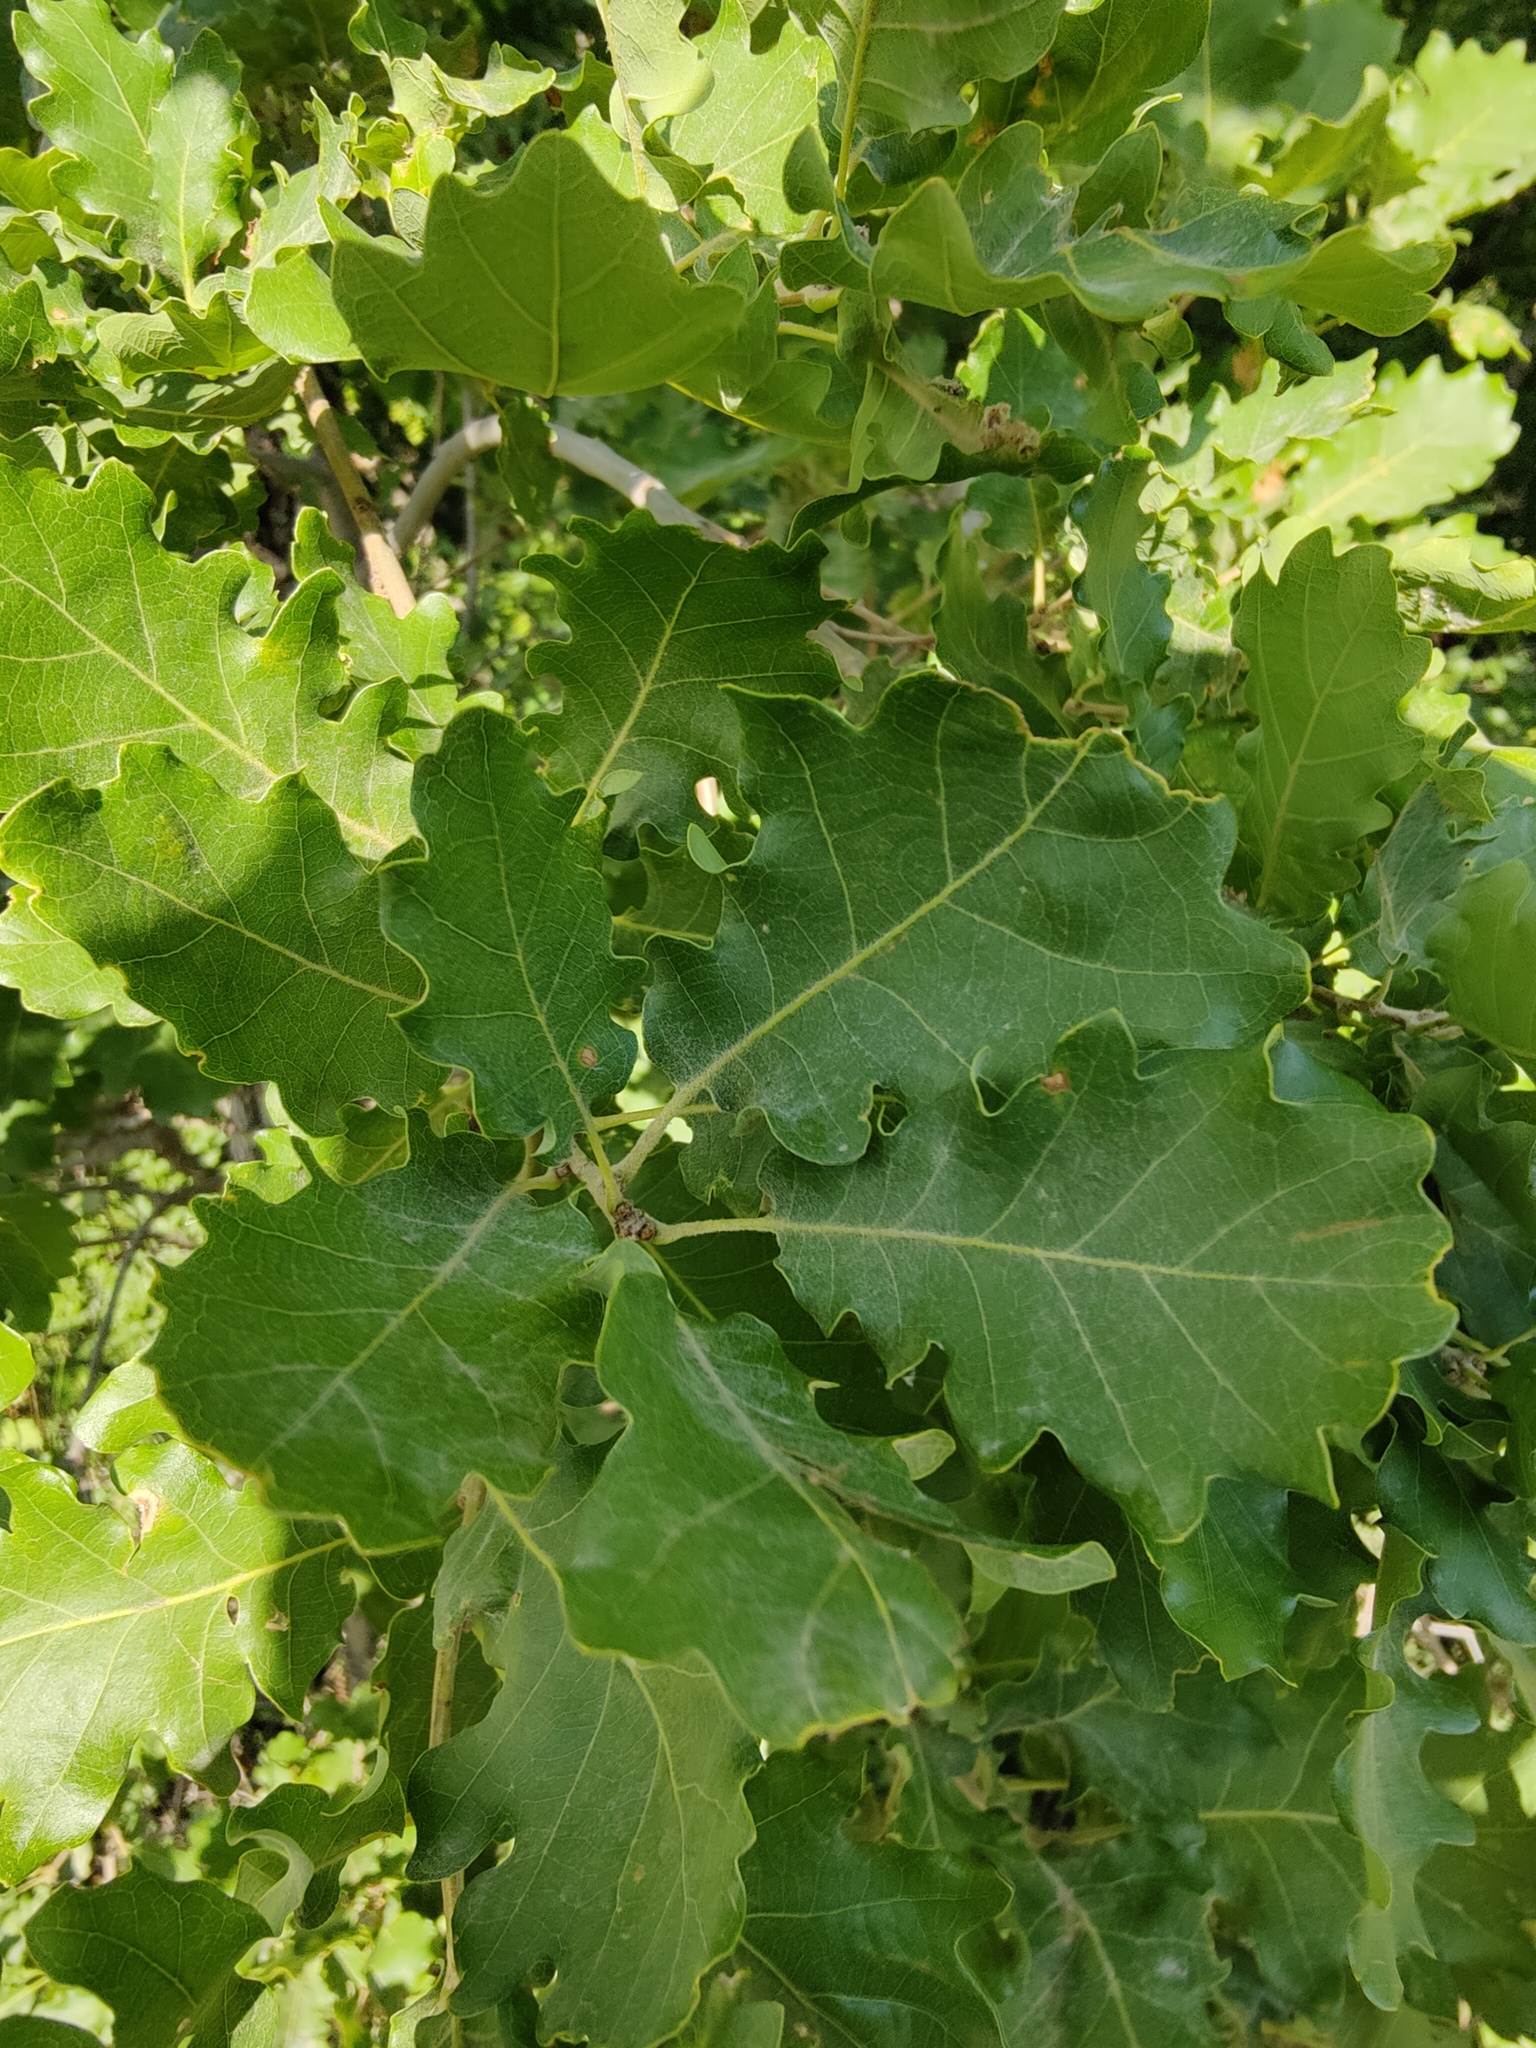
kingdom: Plantae
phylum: Tracheophyta
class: Magnoliopsida
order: Fagales
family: Fagaceae
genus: Quercus
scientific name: Quercus pubescens
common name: Downy oak
